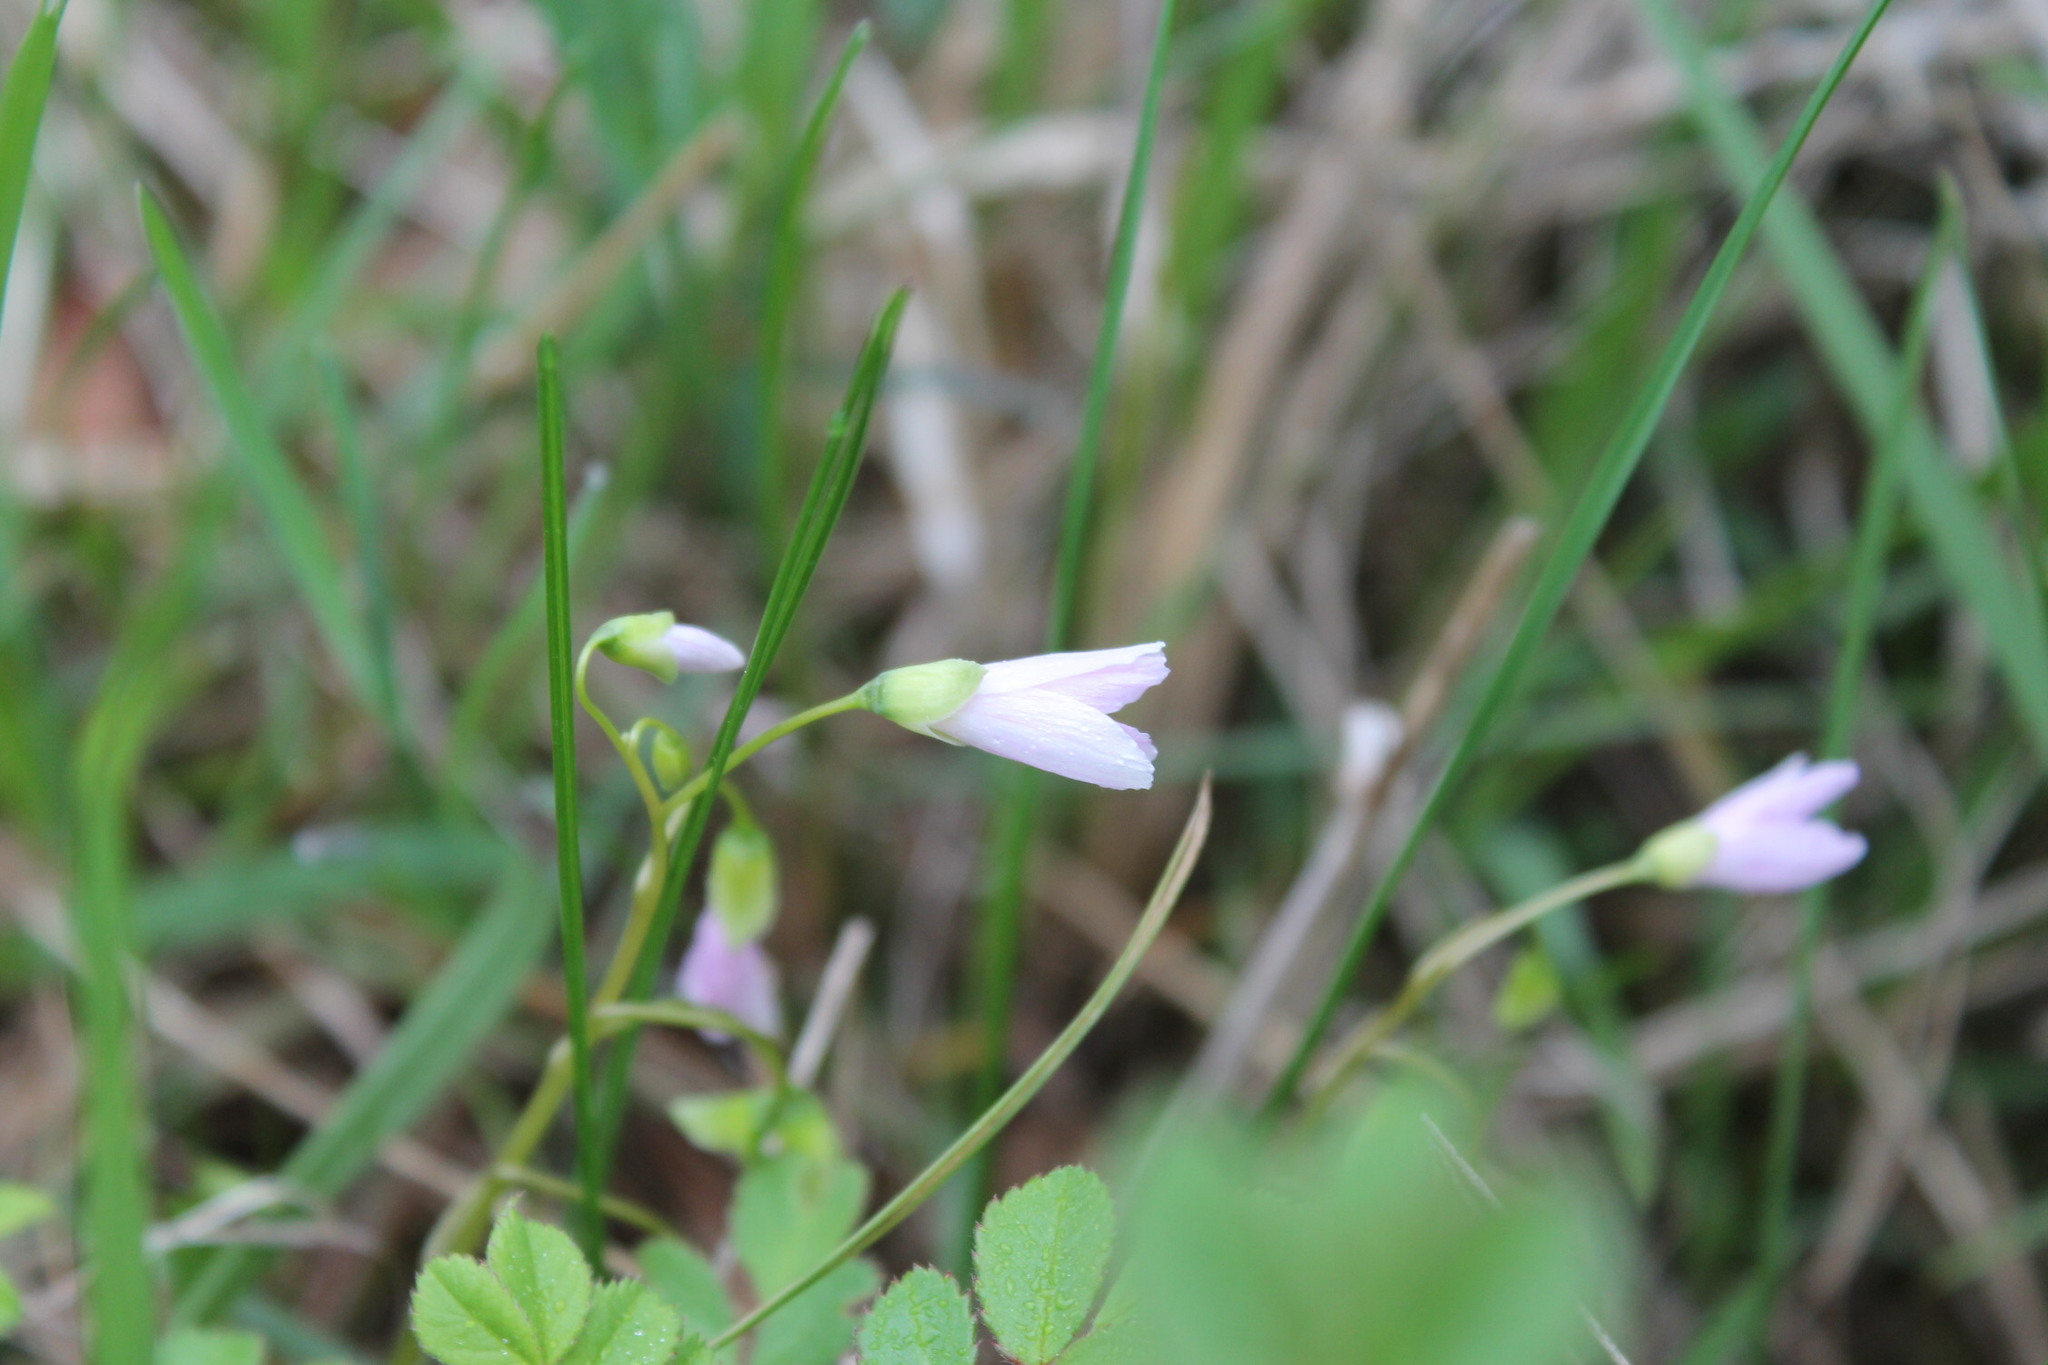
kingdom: Plantae
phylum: Tracheophyta
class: Magnoliopsida
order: Caryophyllales
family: Montiaceae
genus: Claytonia
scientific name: Claytonia virginica
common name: Virginia springbeauty
